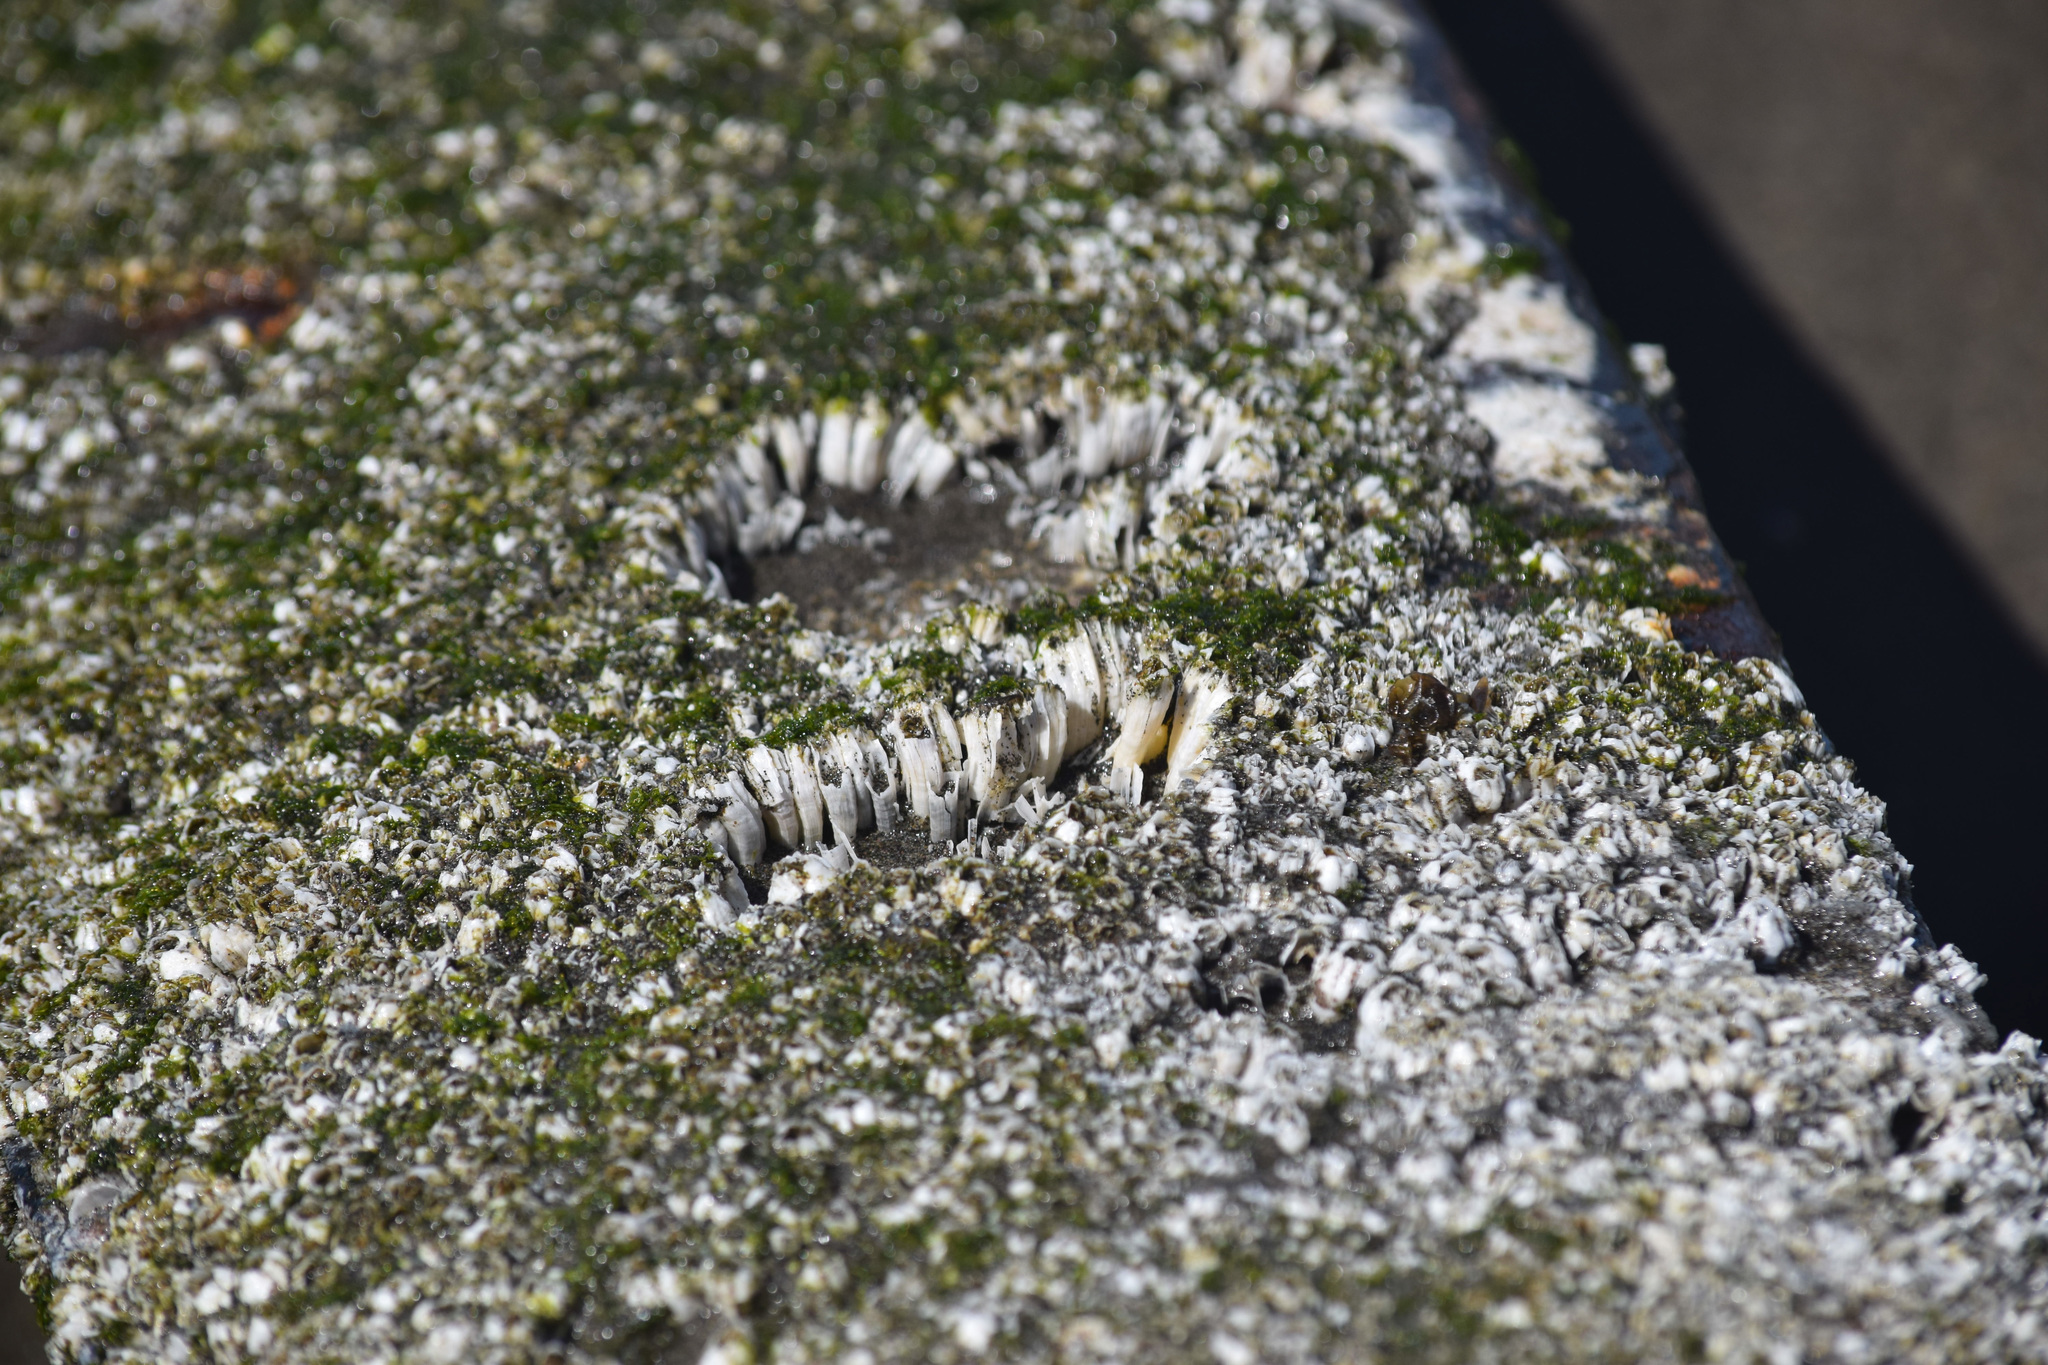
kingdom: Animalia
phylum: Arthropoda
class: Maxillopoda
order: Sessilia
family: Balanidae
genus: Balanus
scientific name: Balanus glandula
